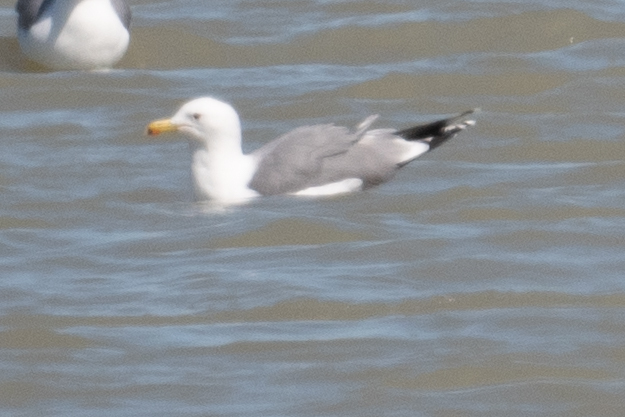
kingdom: Animalia
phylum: Chordata
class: Aves
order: Charadriiformes
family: Laridae
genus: Larus
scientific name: Larus californicus
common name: California gull
